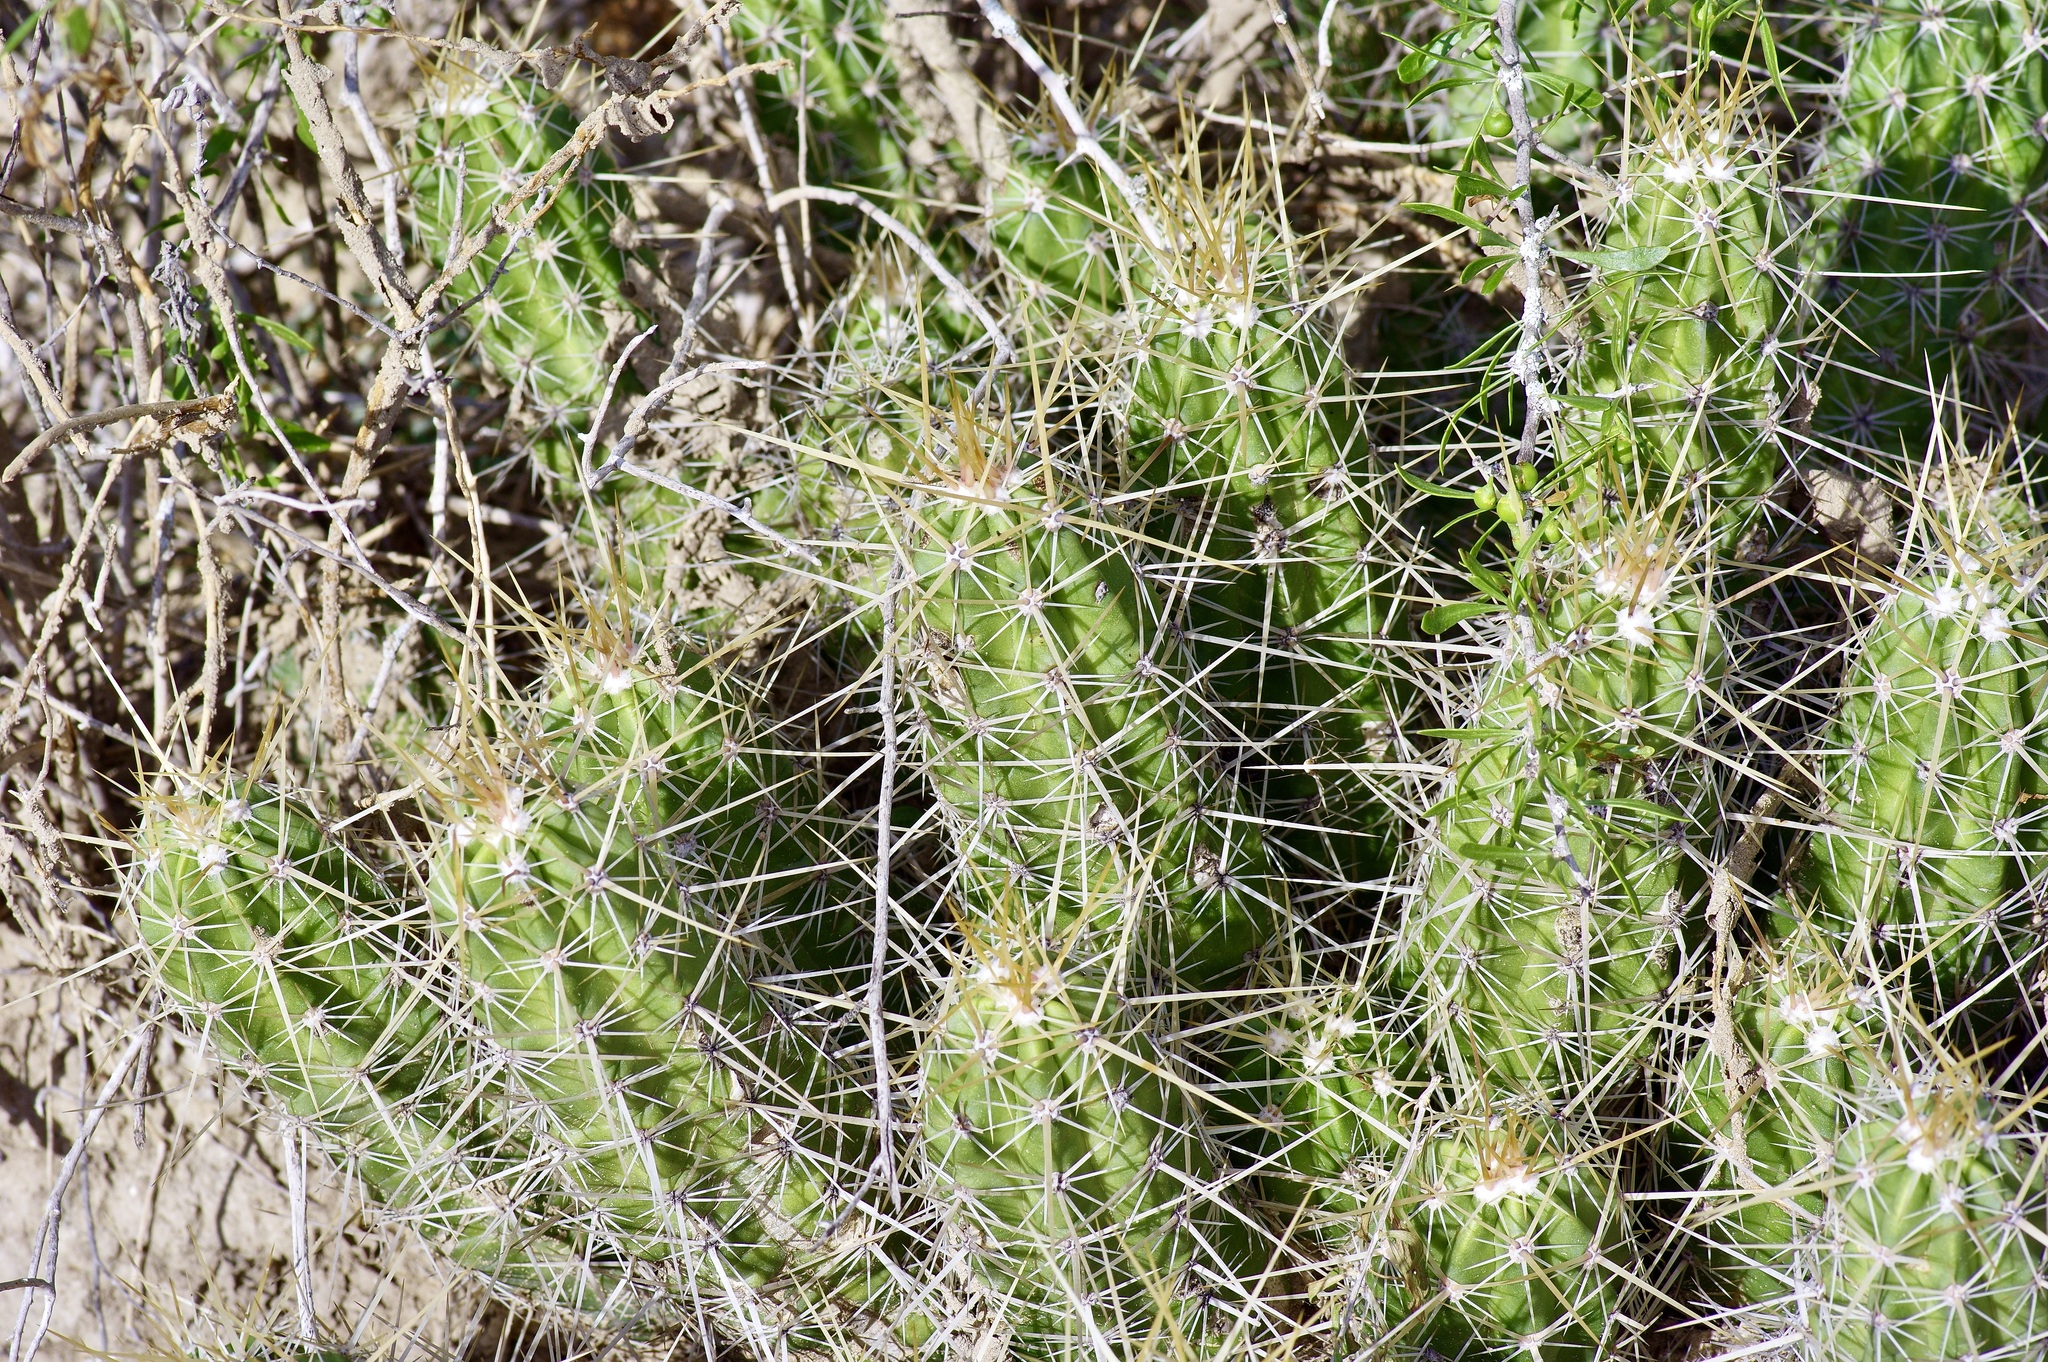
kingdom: Plantae
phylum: Tracheophyta
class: Magnoliopsida
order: Caryophyllales
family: Cactaceae
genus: Echinocereus
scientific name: Echinocereus enneacanthus
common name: Pitaya
